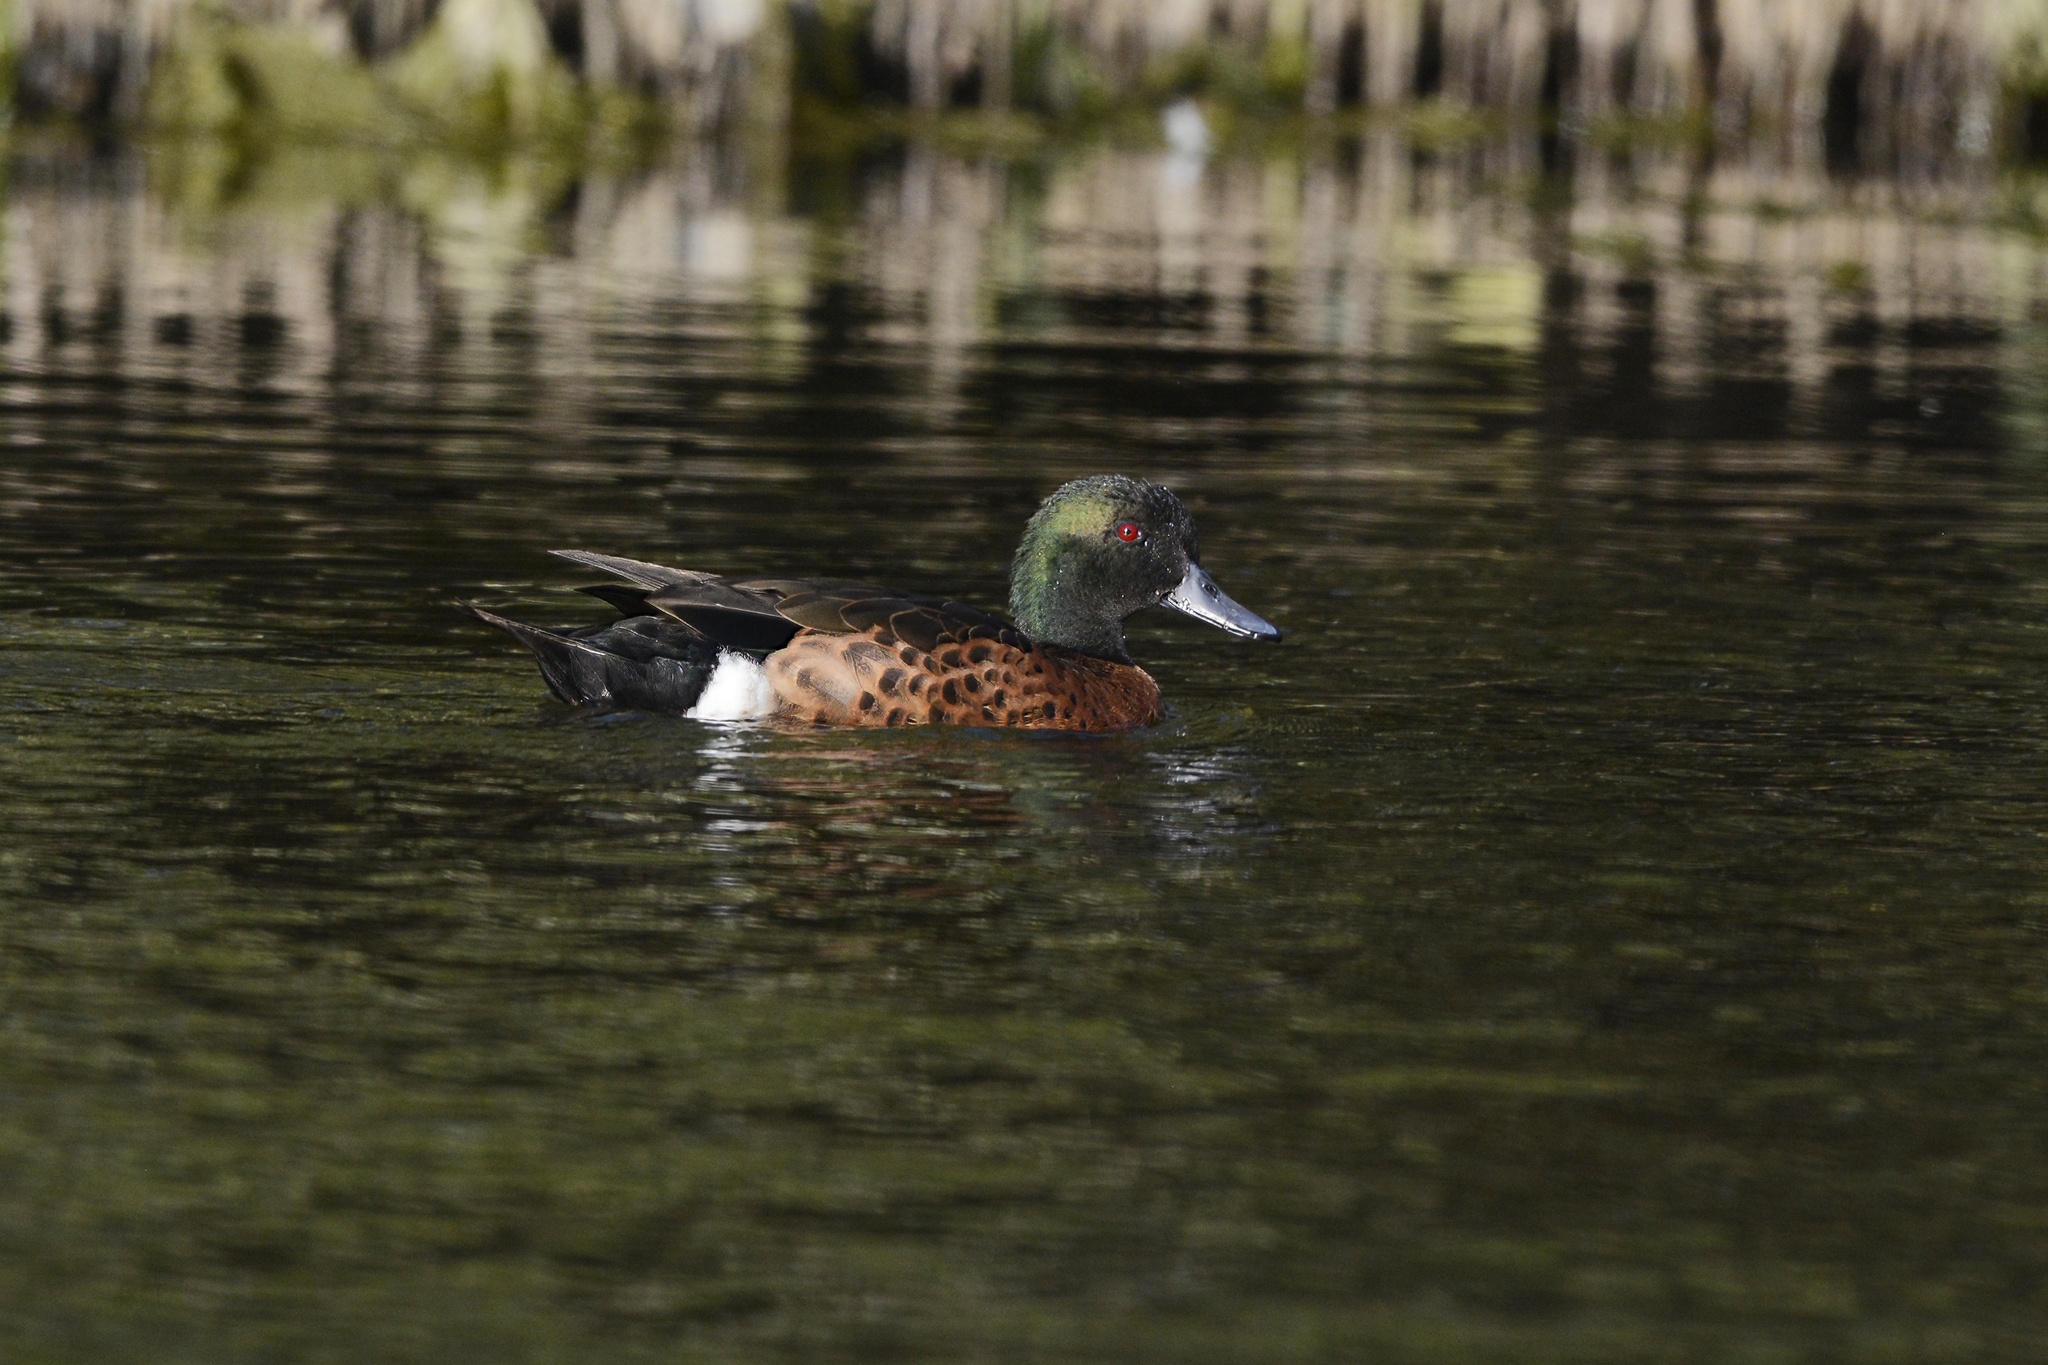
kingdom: Animalia
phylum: Chordata
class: Aves
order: Anseriformes
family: Anatidae
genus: Anas
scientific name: Anas castanea
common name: Chestnut teal
